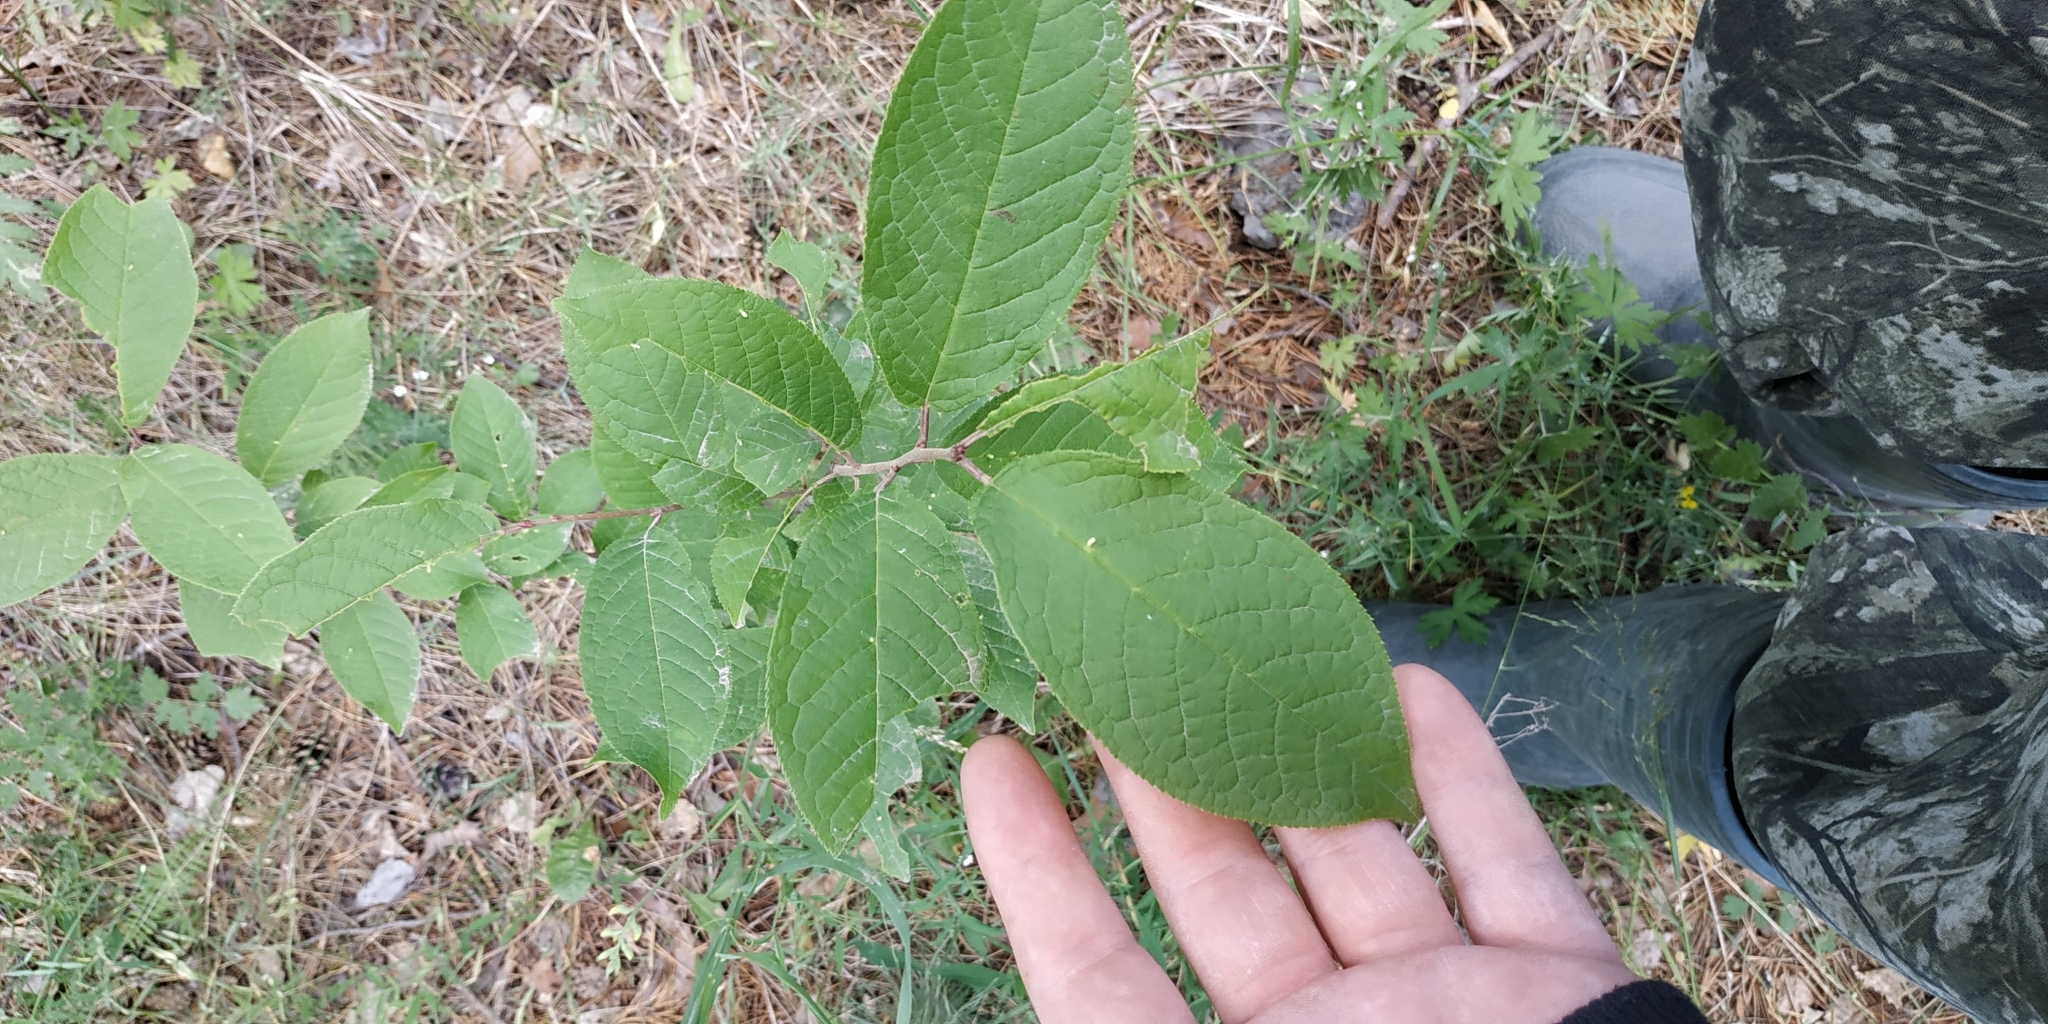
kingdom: Plantae
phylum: Tracheophyta
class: Magnoliopsida
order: Rosales
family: Rosaceae
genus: Prunus
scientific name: Prunus padus
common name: Bird cherry
